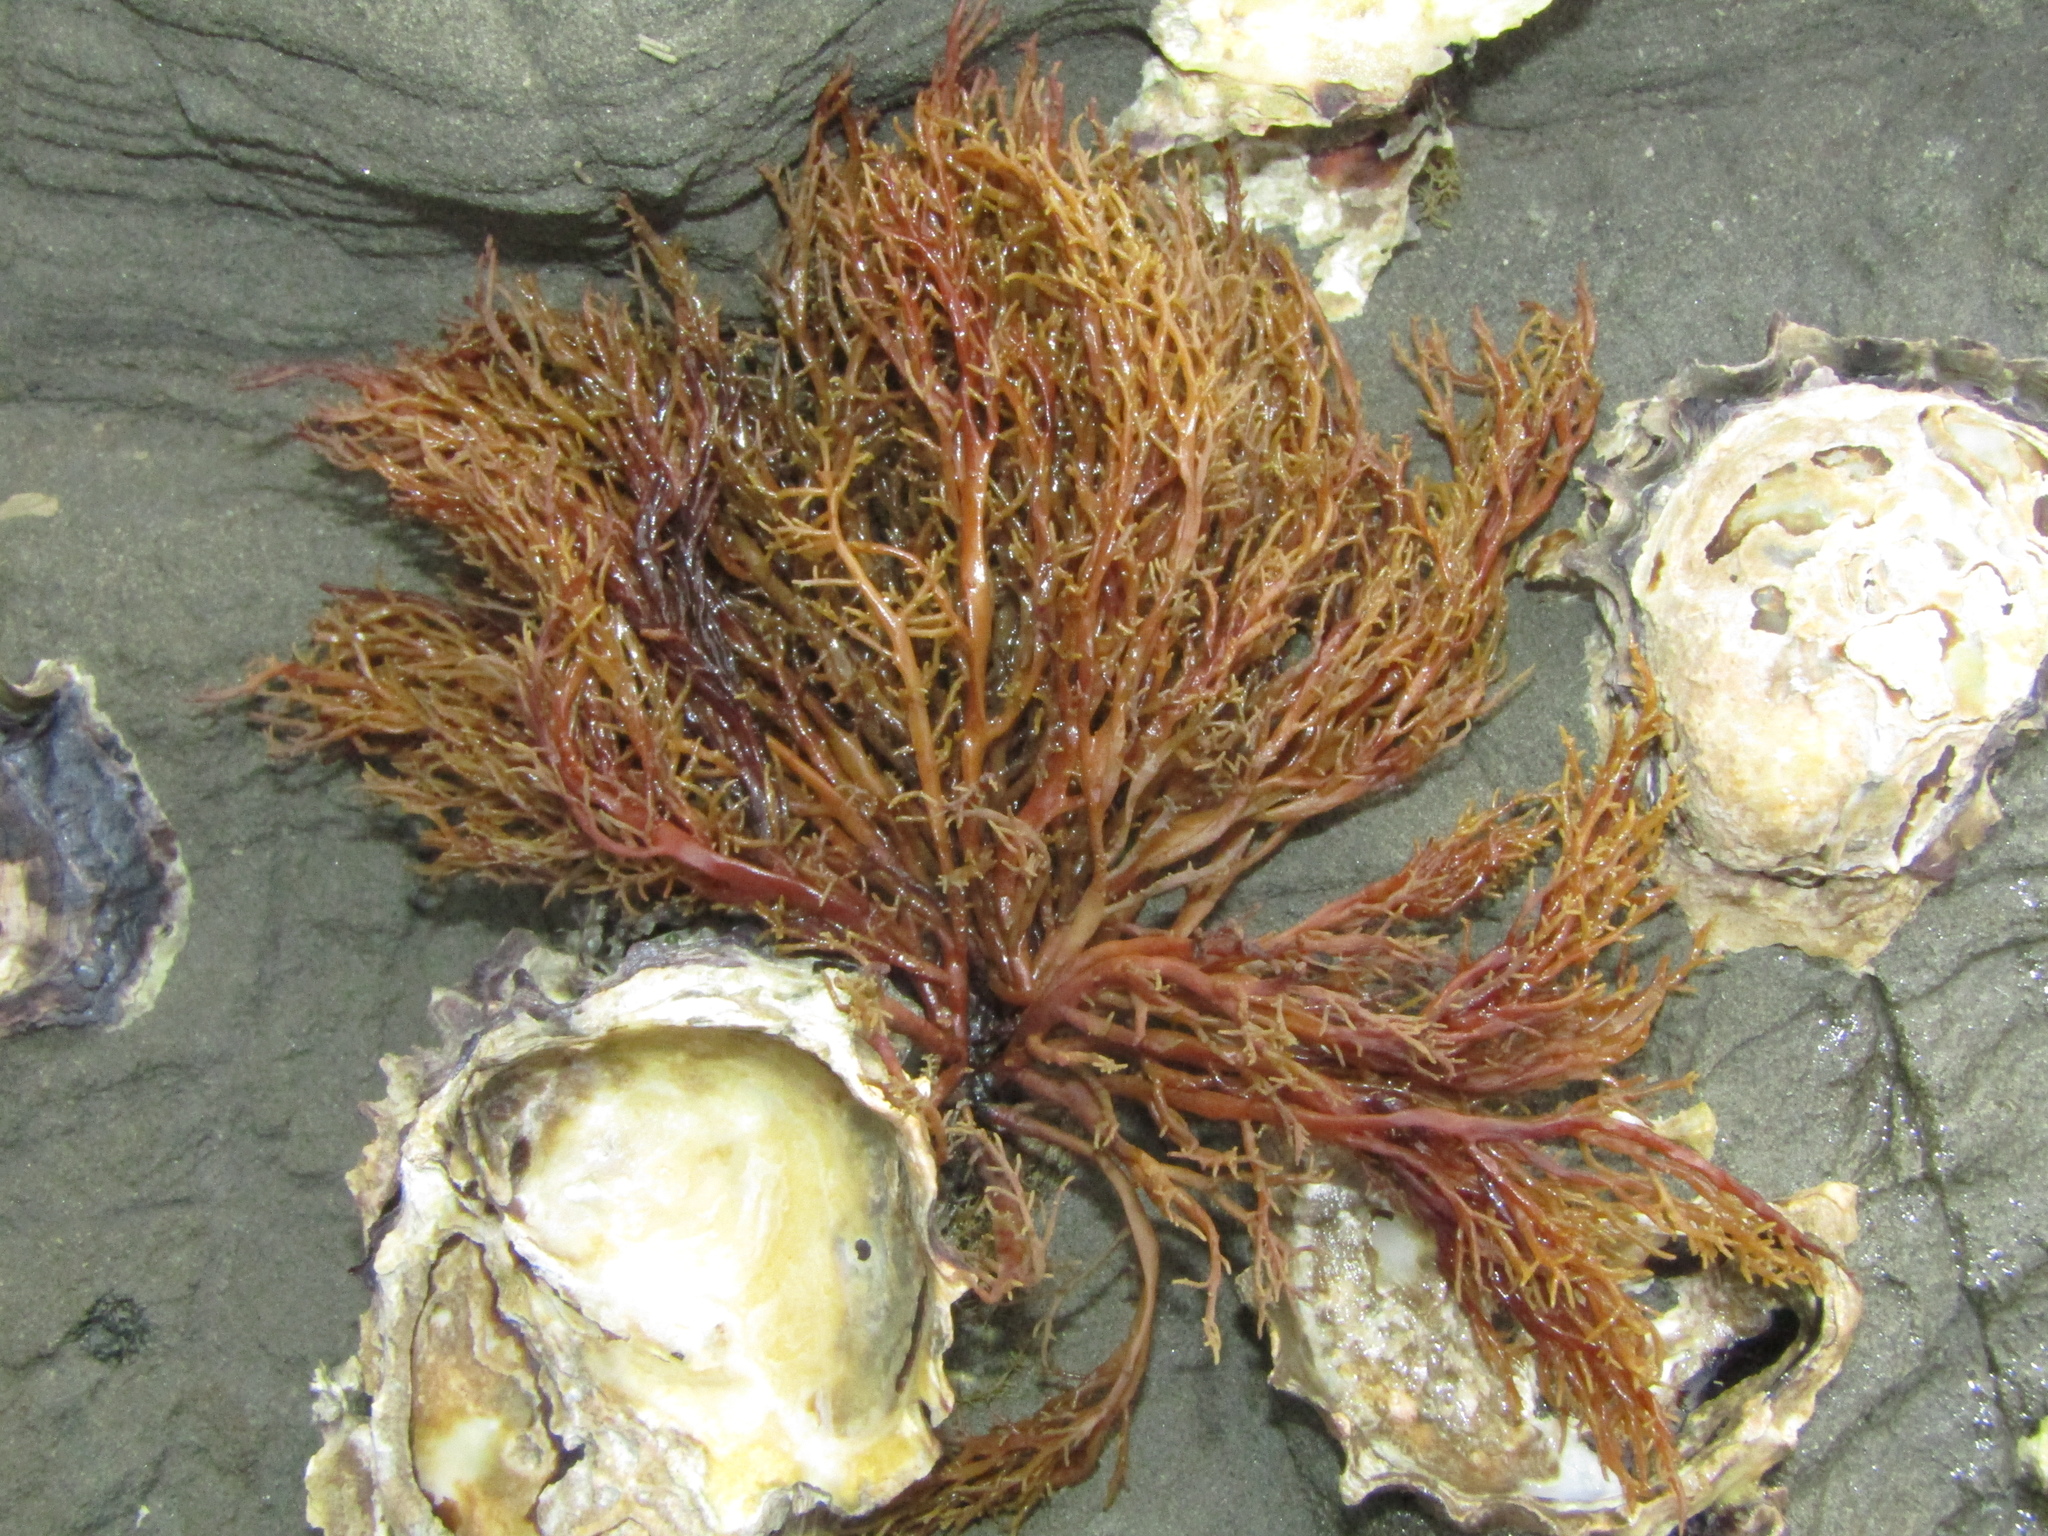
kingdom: Chromista
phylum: Ochrophyta
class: Phaeophyceae
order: Scytothamnales
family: Scytothamnaceae
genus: Scytothamnus
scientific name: Scytothamnus australis
